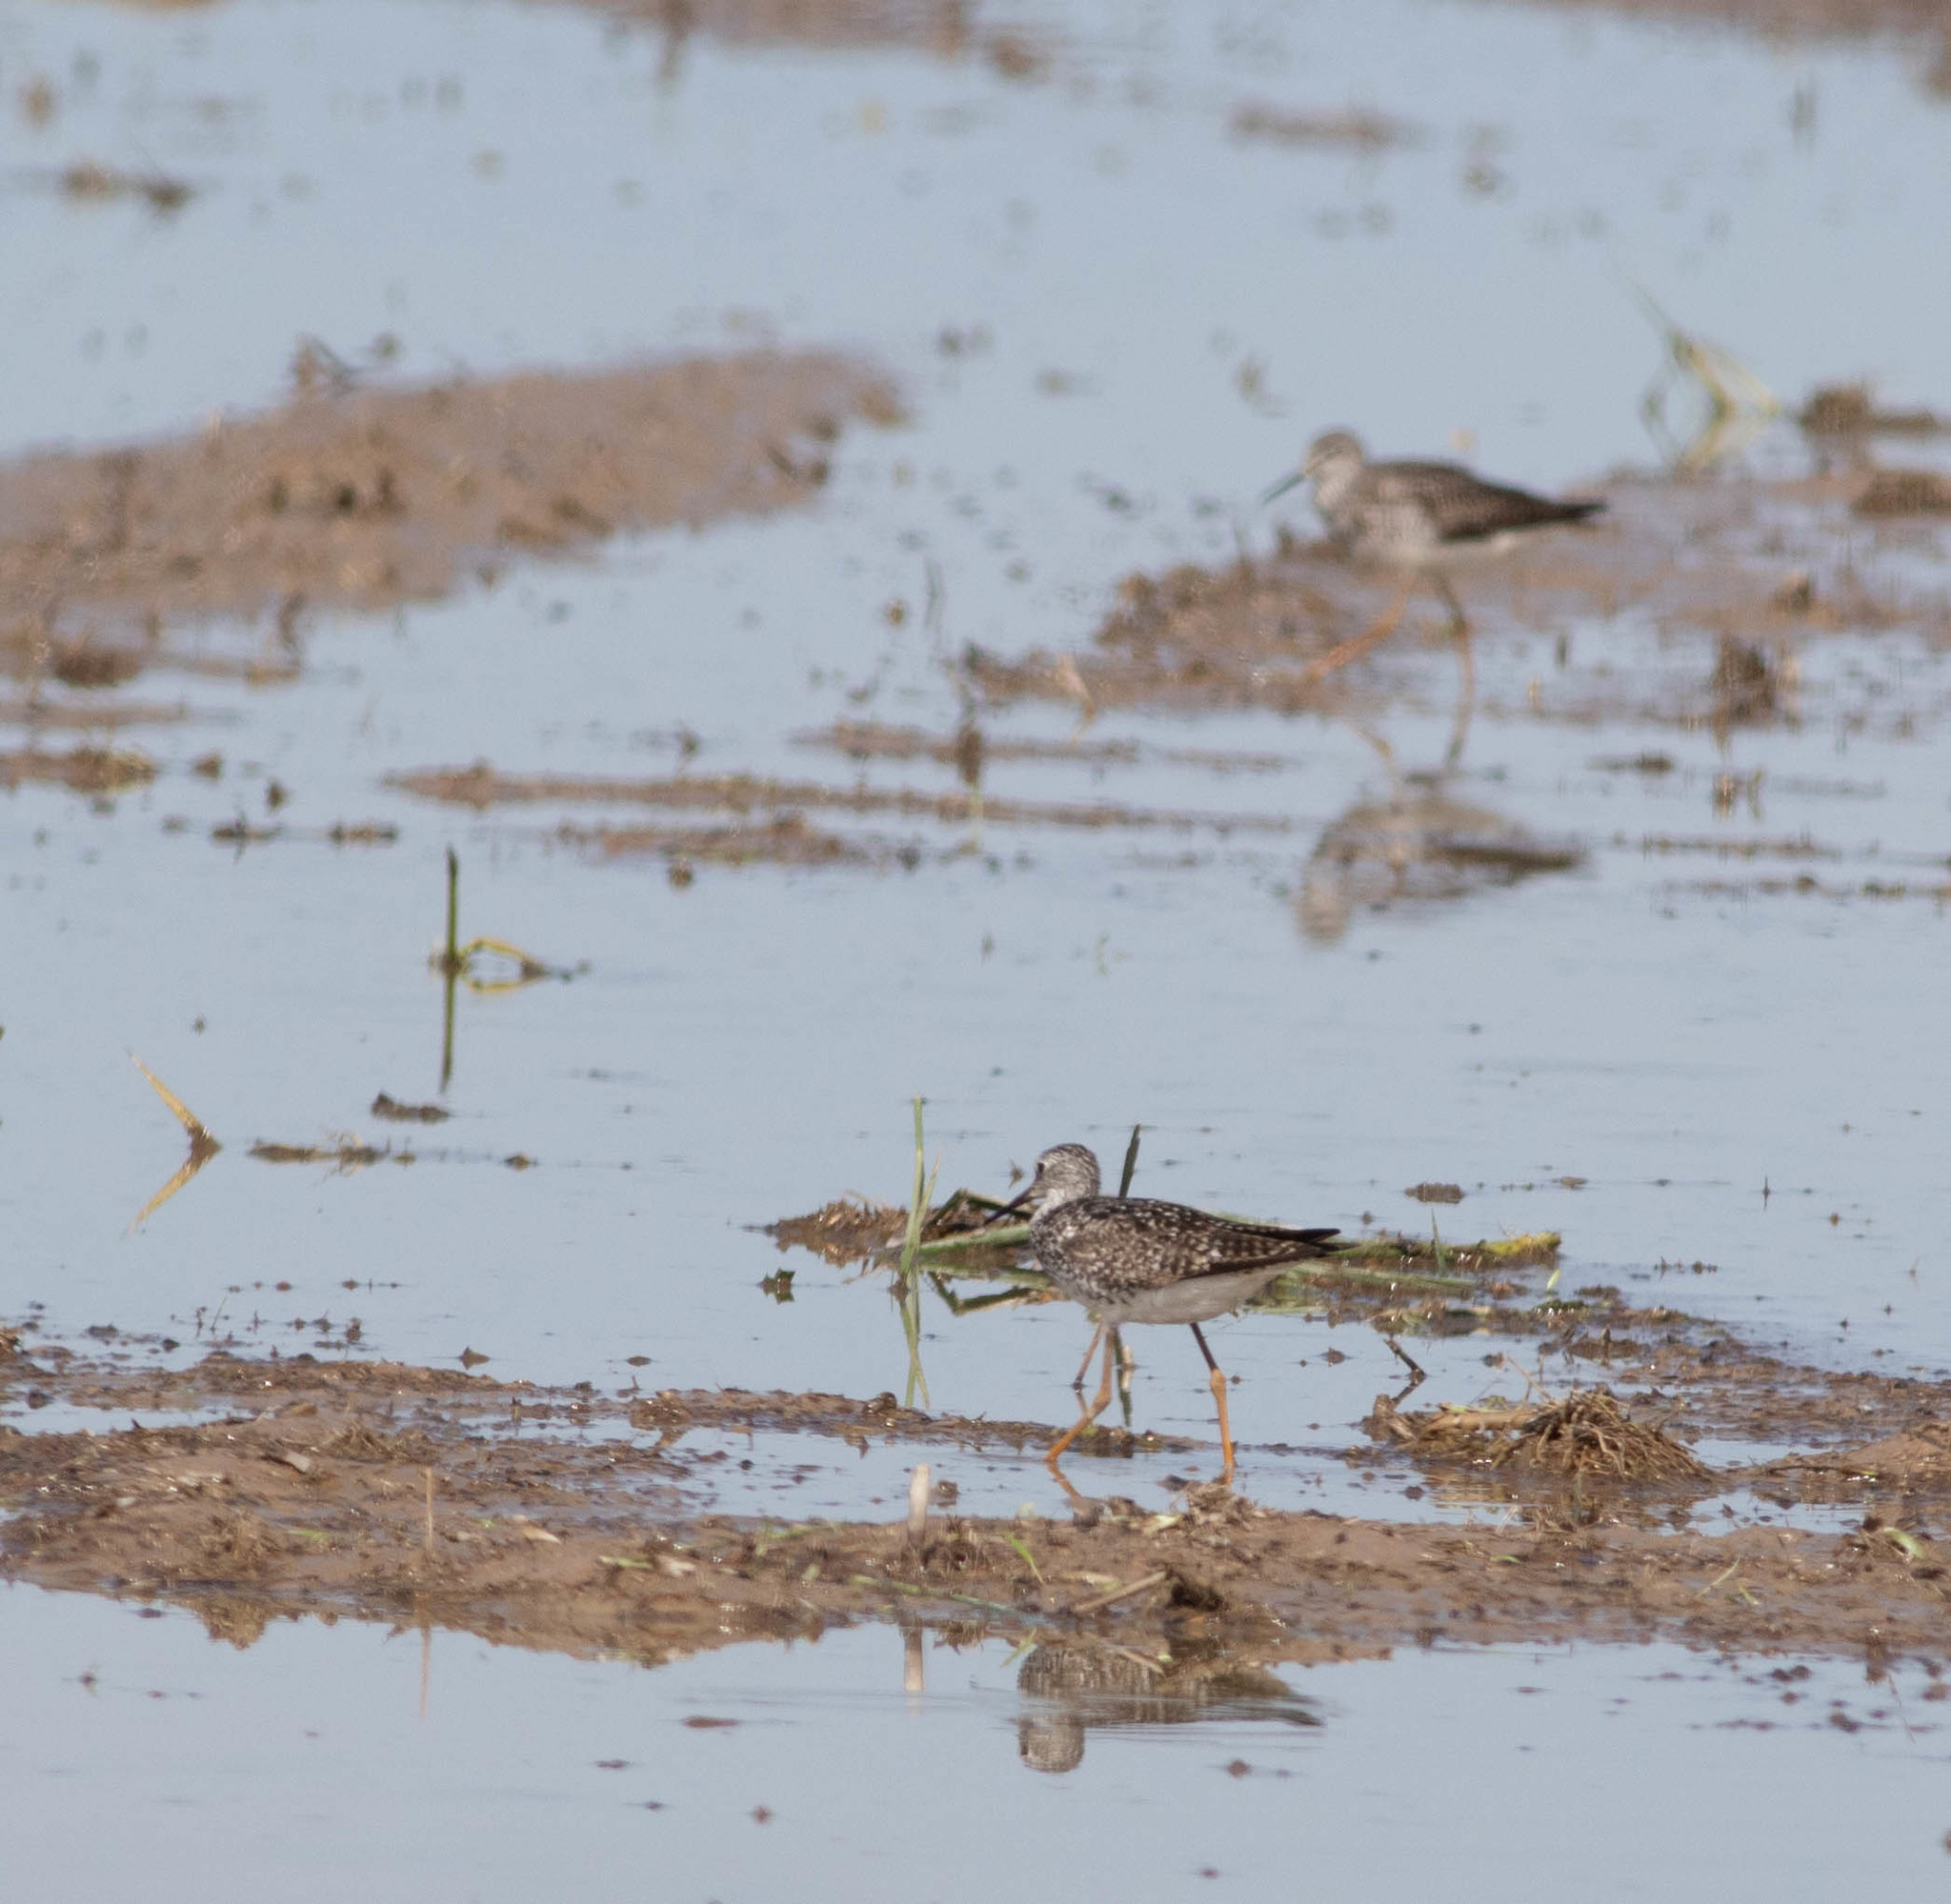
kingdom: Animalia
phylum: Chordata
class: Aves
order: Charadriiformes
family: Scolopacidae
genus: Tringa
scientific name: Tringa flavipes
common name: Lesser yellowlegs
